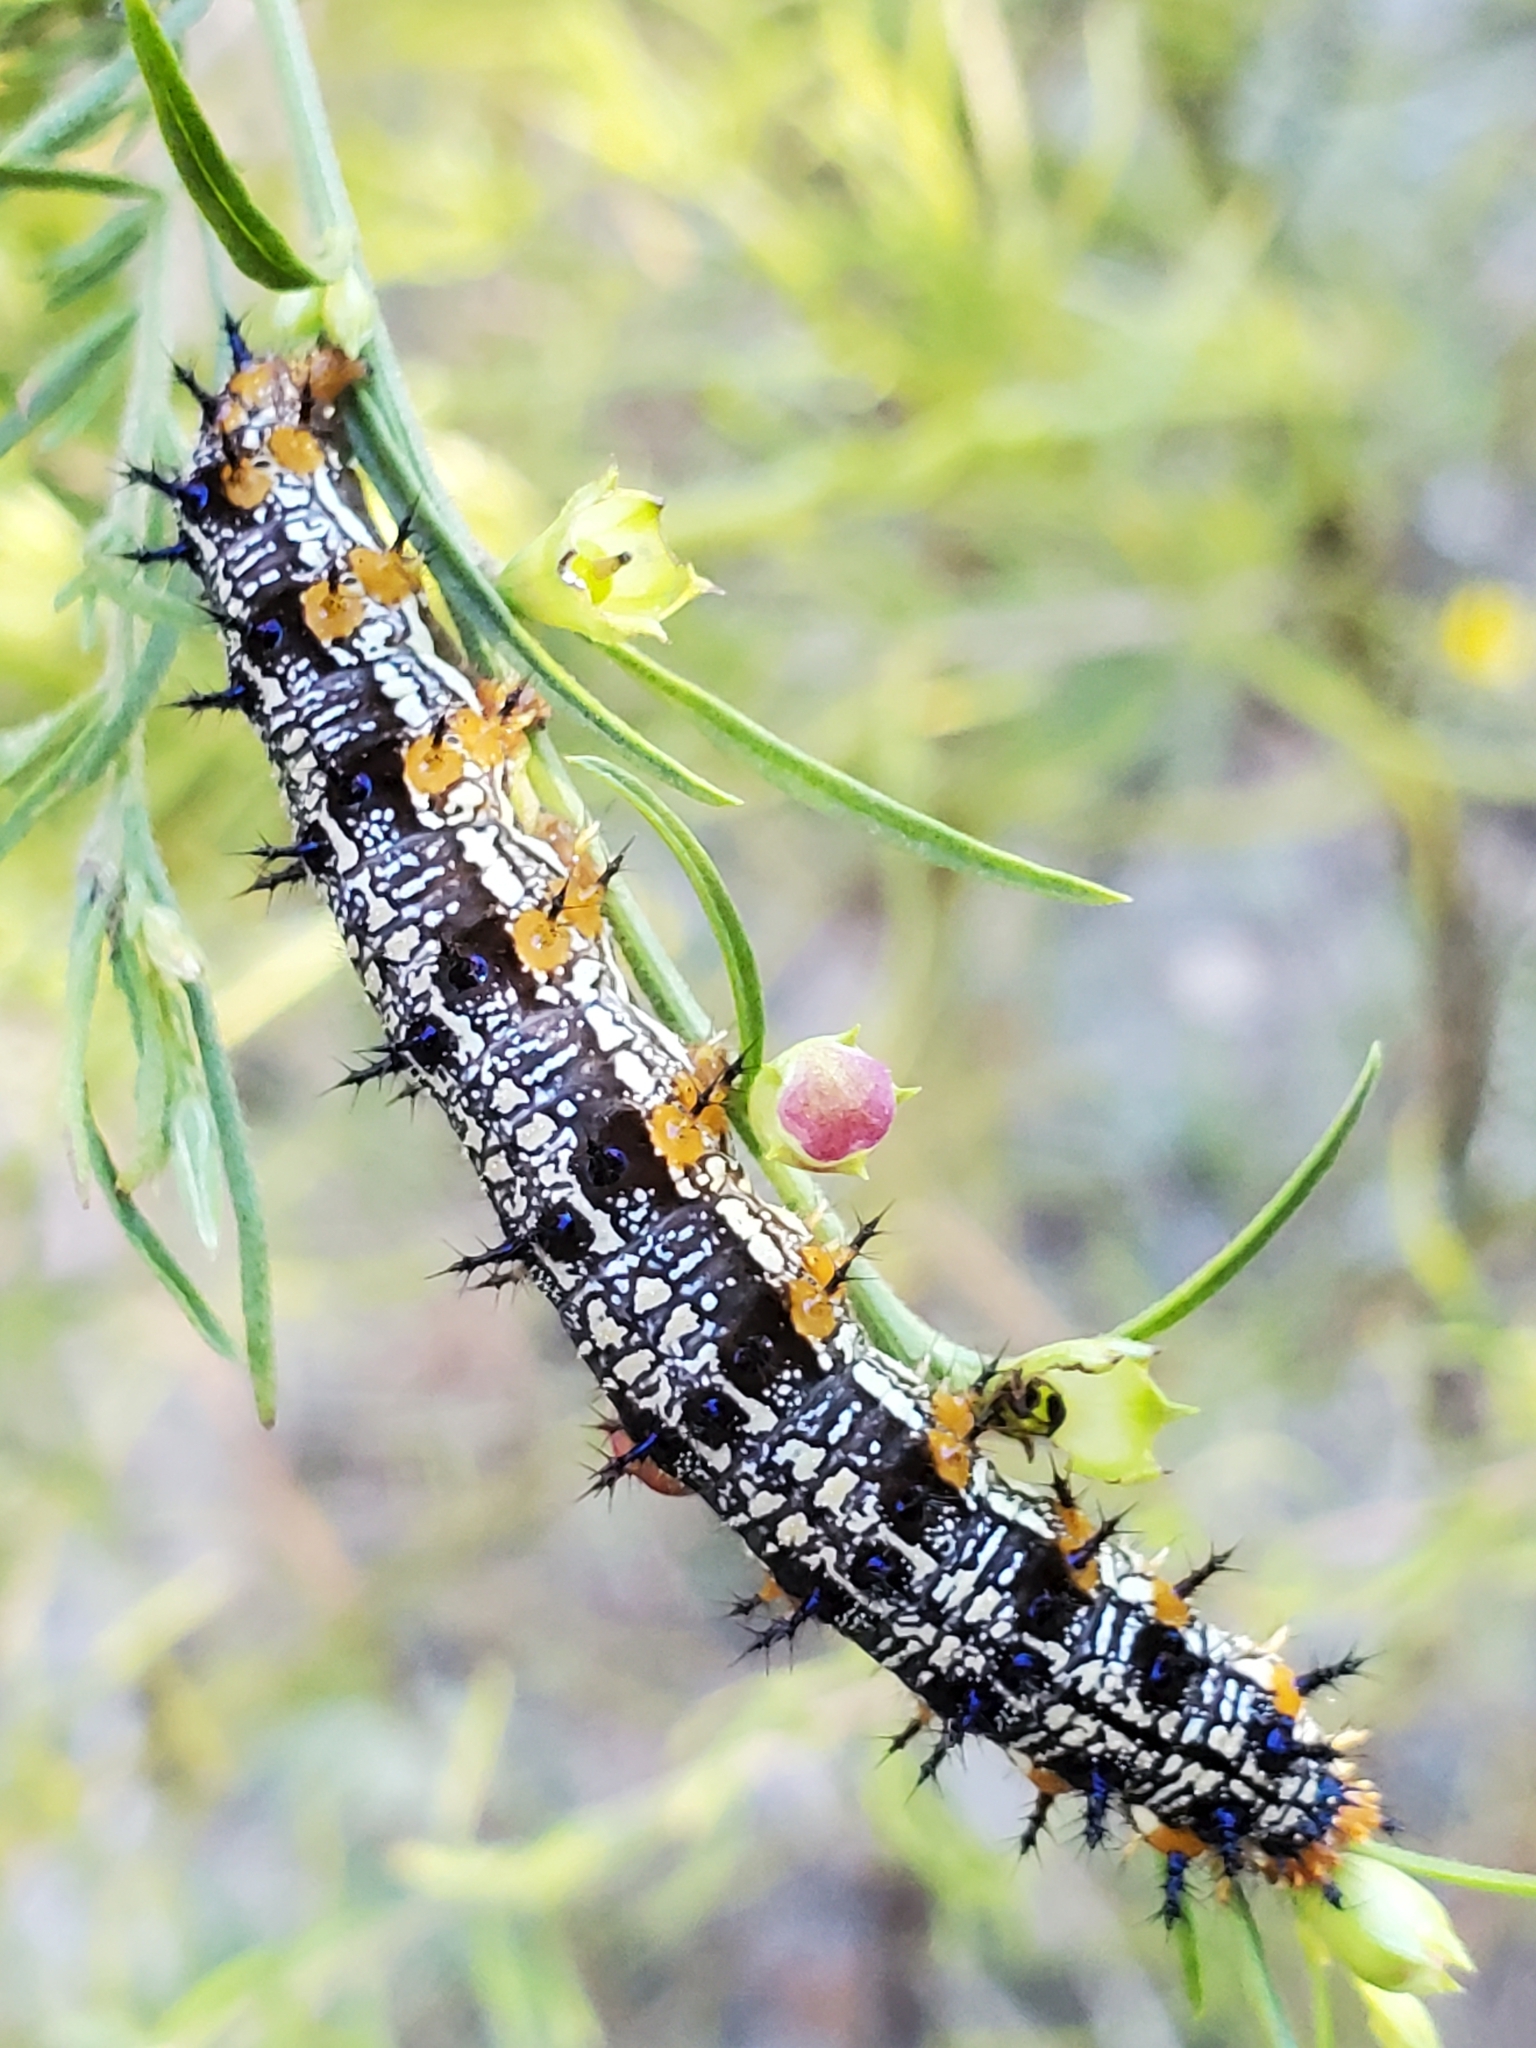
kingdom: Animalia
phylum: Arthropoda
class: Insecta
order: Lepidoptera
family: Nymphalidae
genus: Junonia
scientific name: Junonia coenia
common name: Common buckeye
